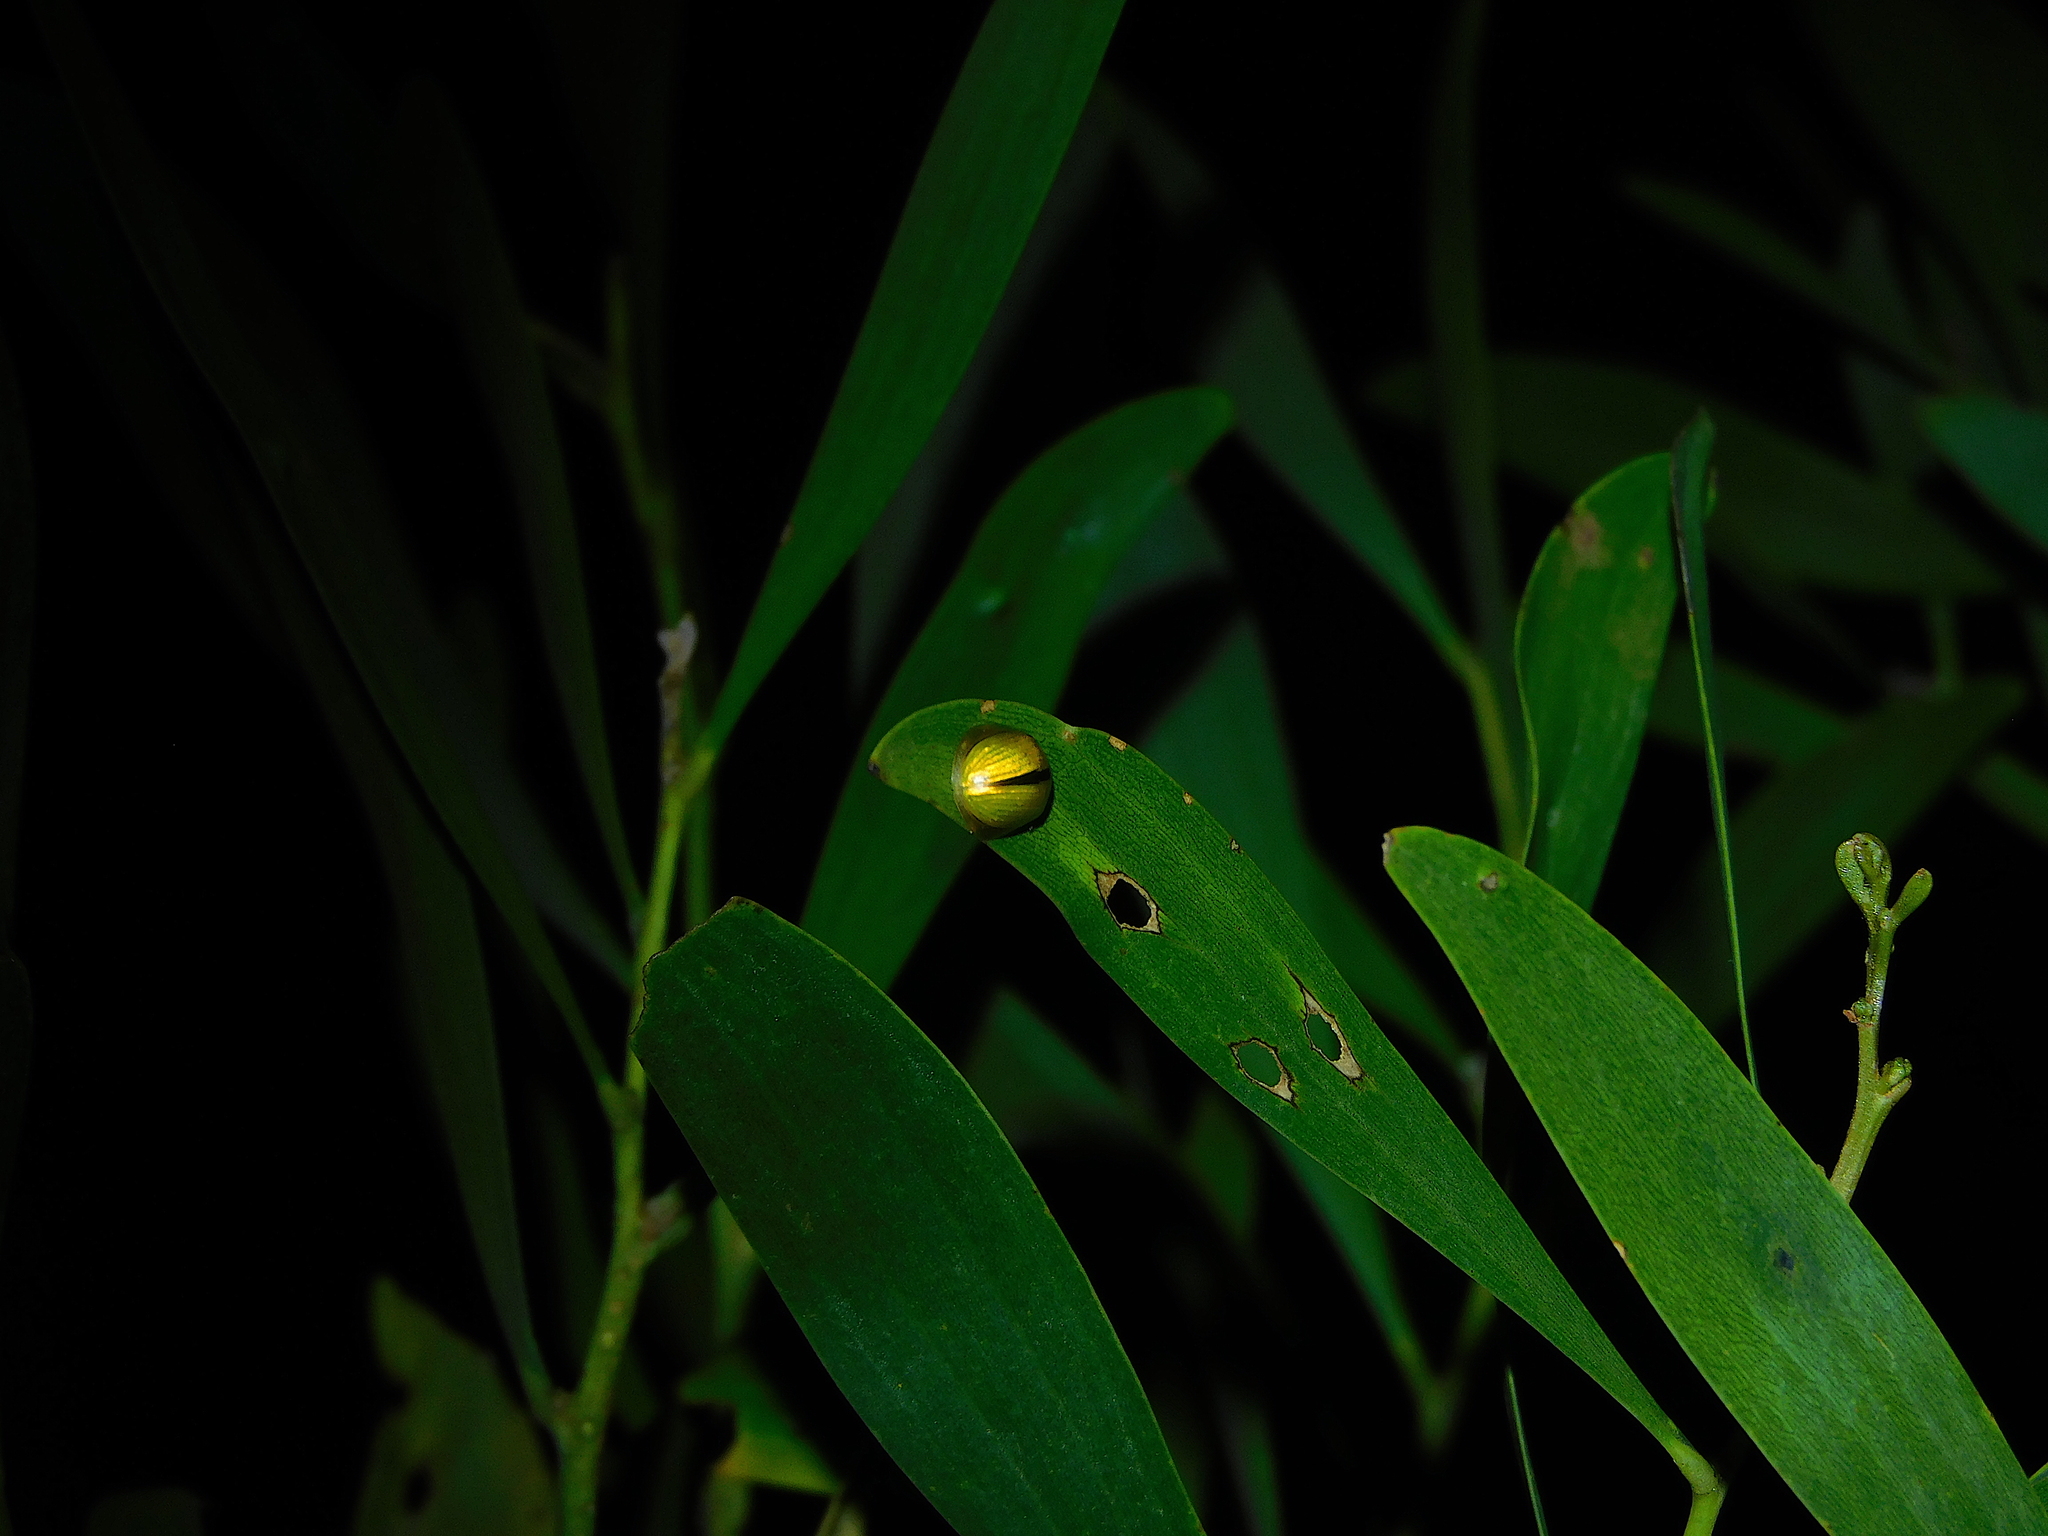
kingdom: Animalia
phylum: Arthropoda
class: Insecta
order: Coleoptera
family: Chrysomelidae
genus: Paropsisterna
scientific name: Paropsisterna
